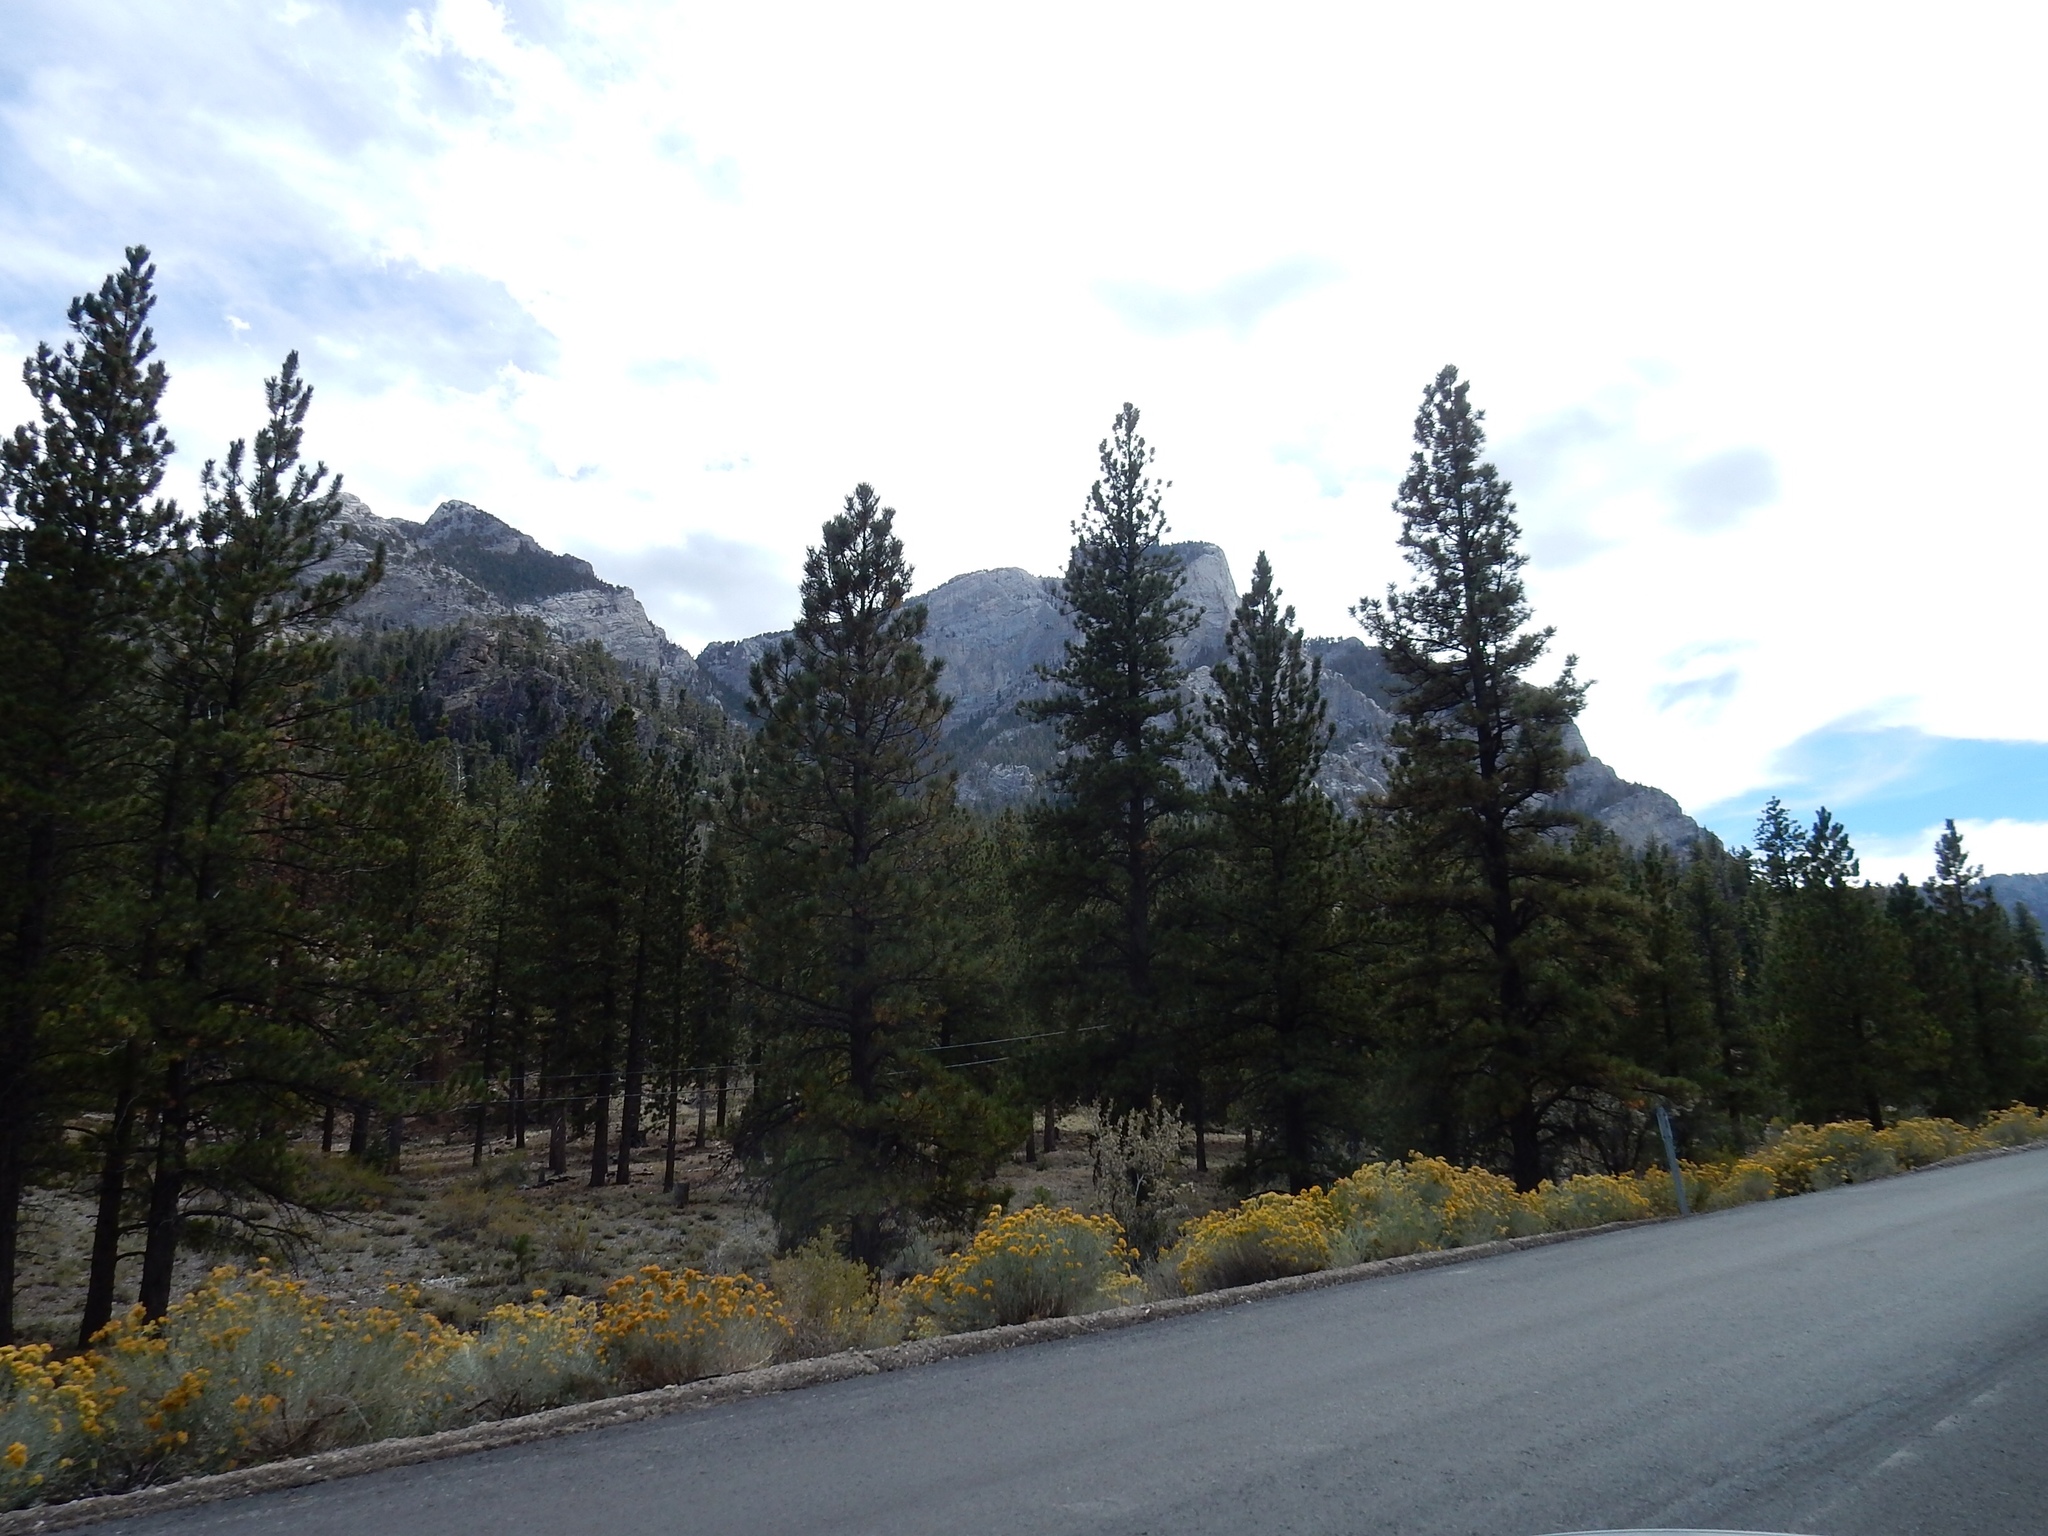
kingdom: Plantae
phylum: Tracheophyta
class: Pinopsida
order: Pinales
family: Pinaceae
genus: Pinus
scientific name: Pinus ponderosa
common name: Western yellow-pine
